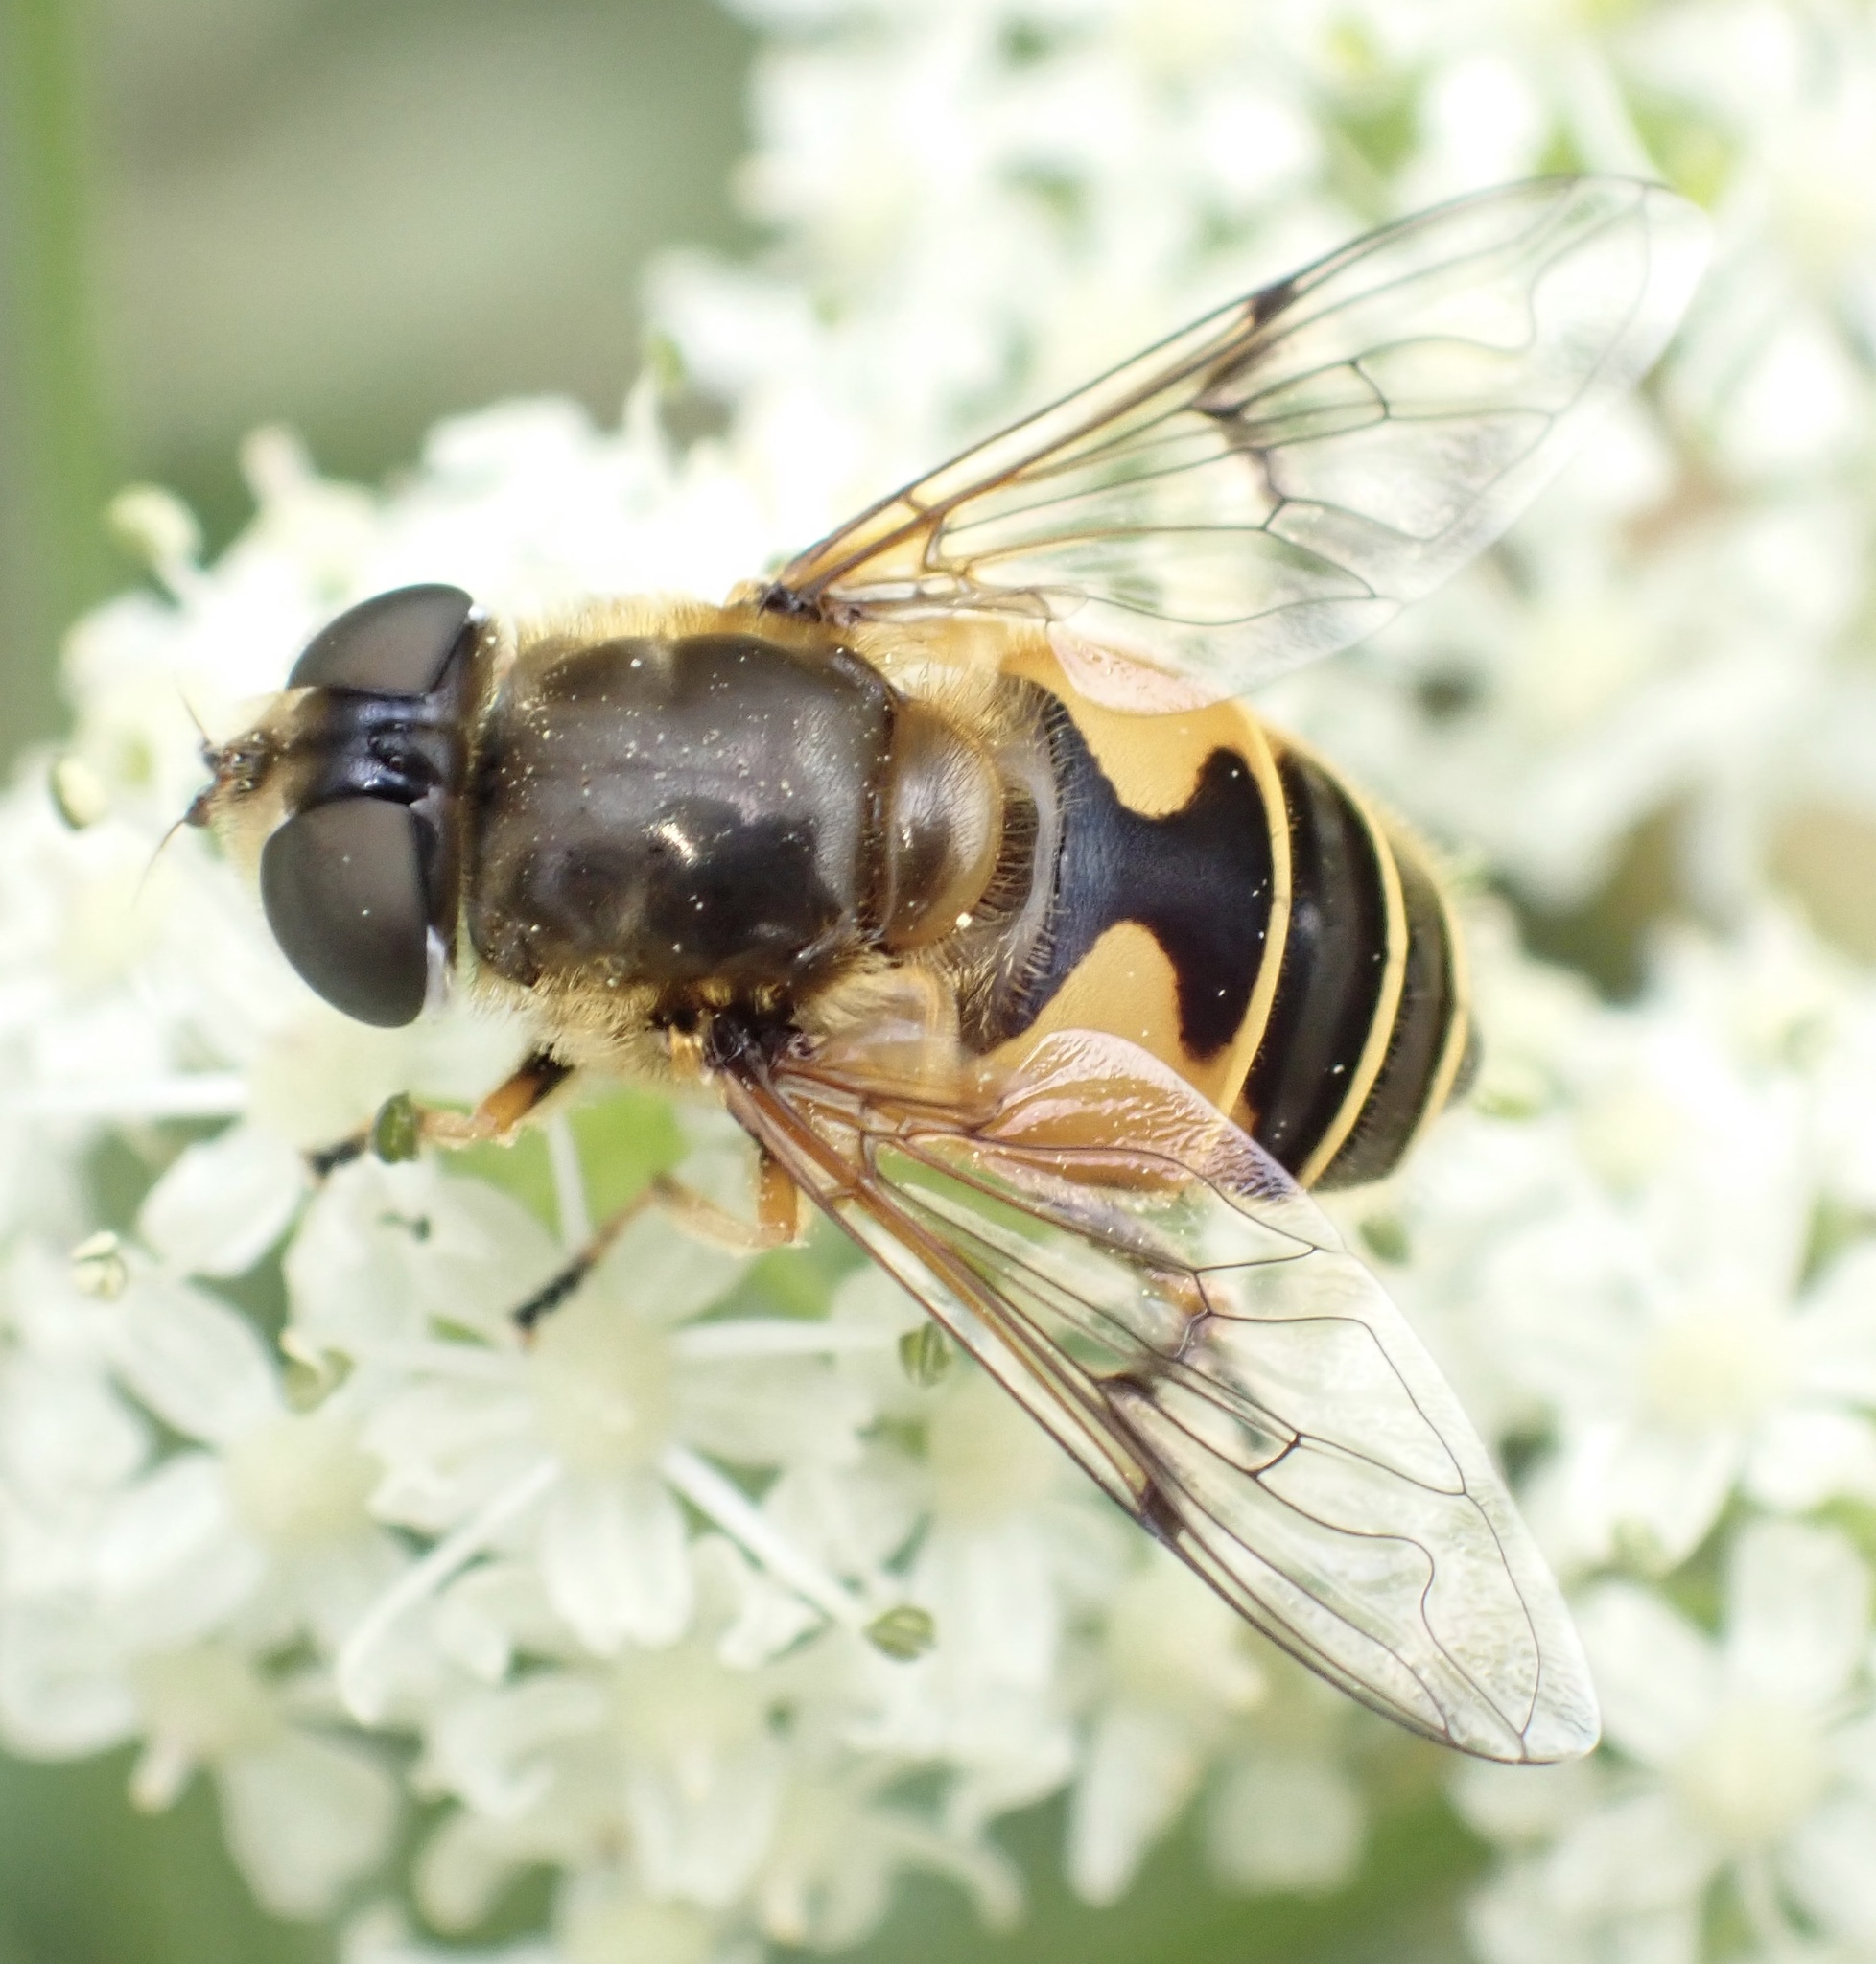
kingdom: Animalia
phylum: Arthropoda
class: Insecta
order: Diptera
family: Syrphidae
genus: Cheilosia
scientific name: Cheilosia morio
